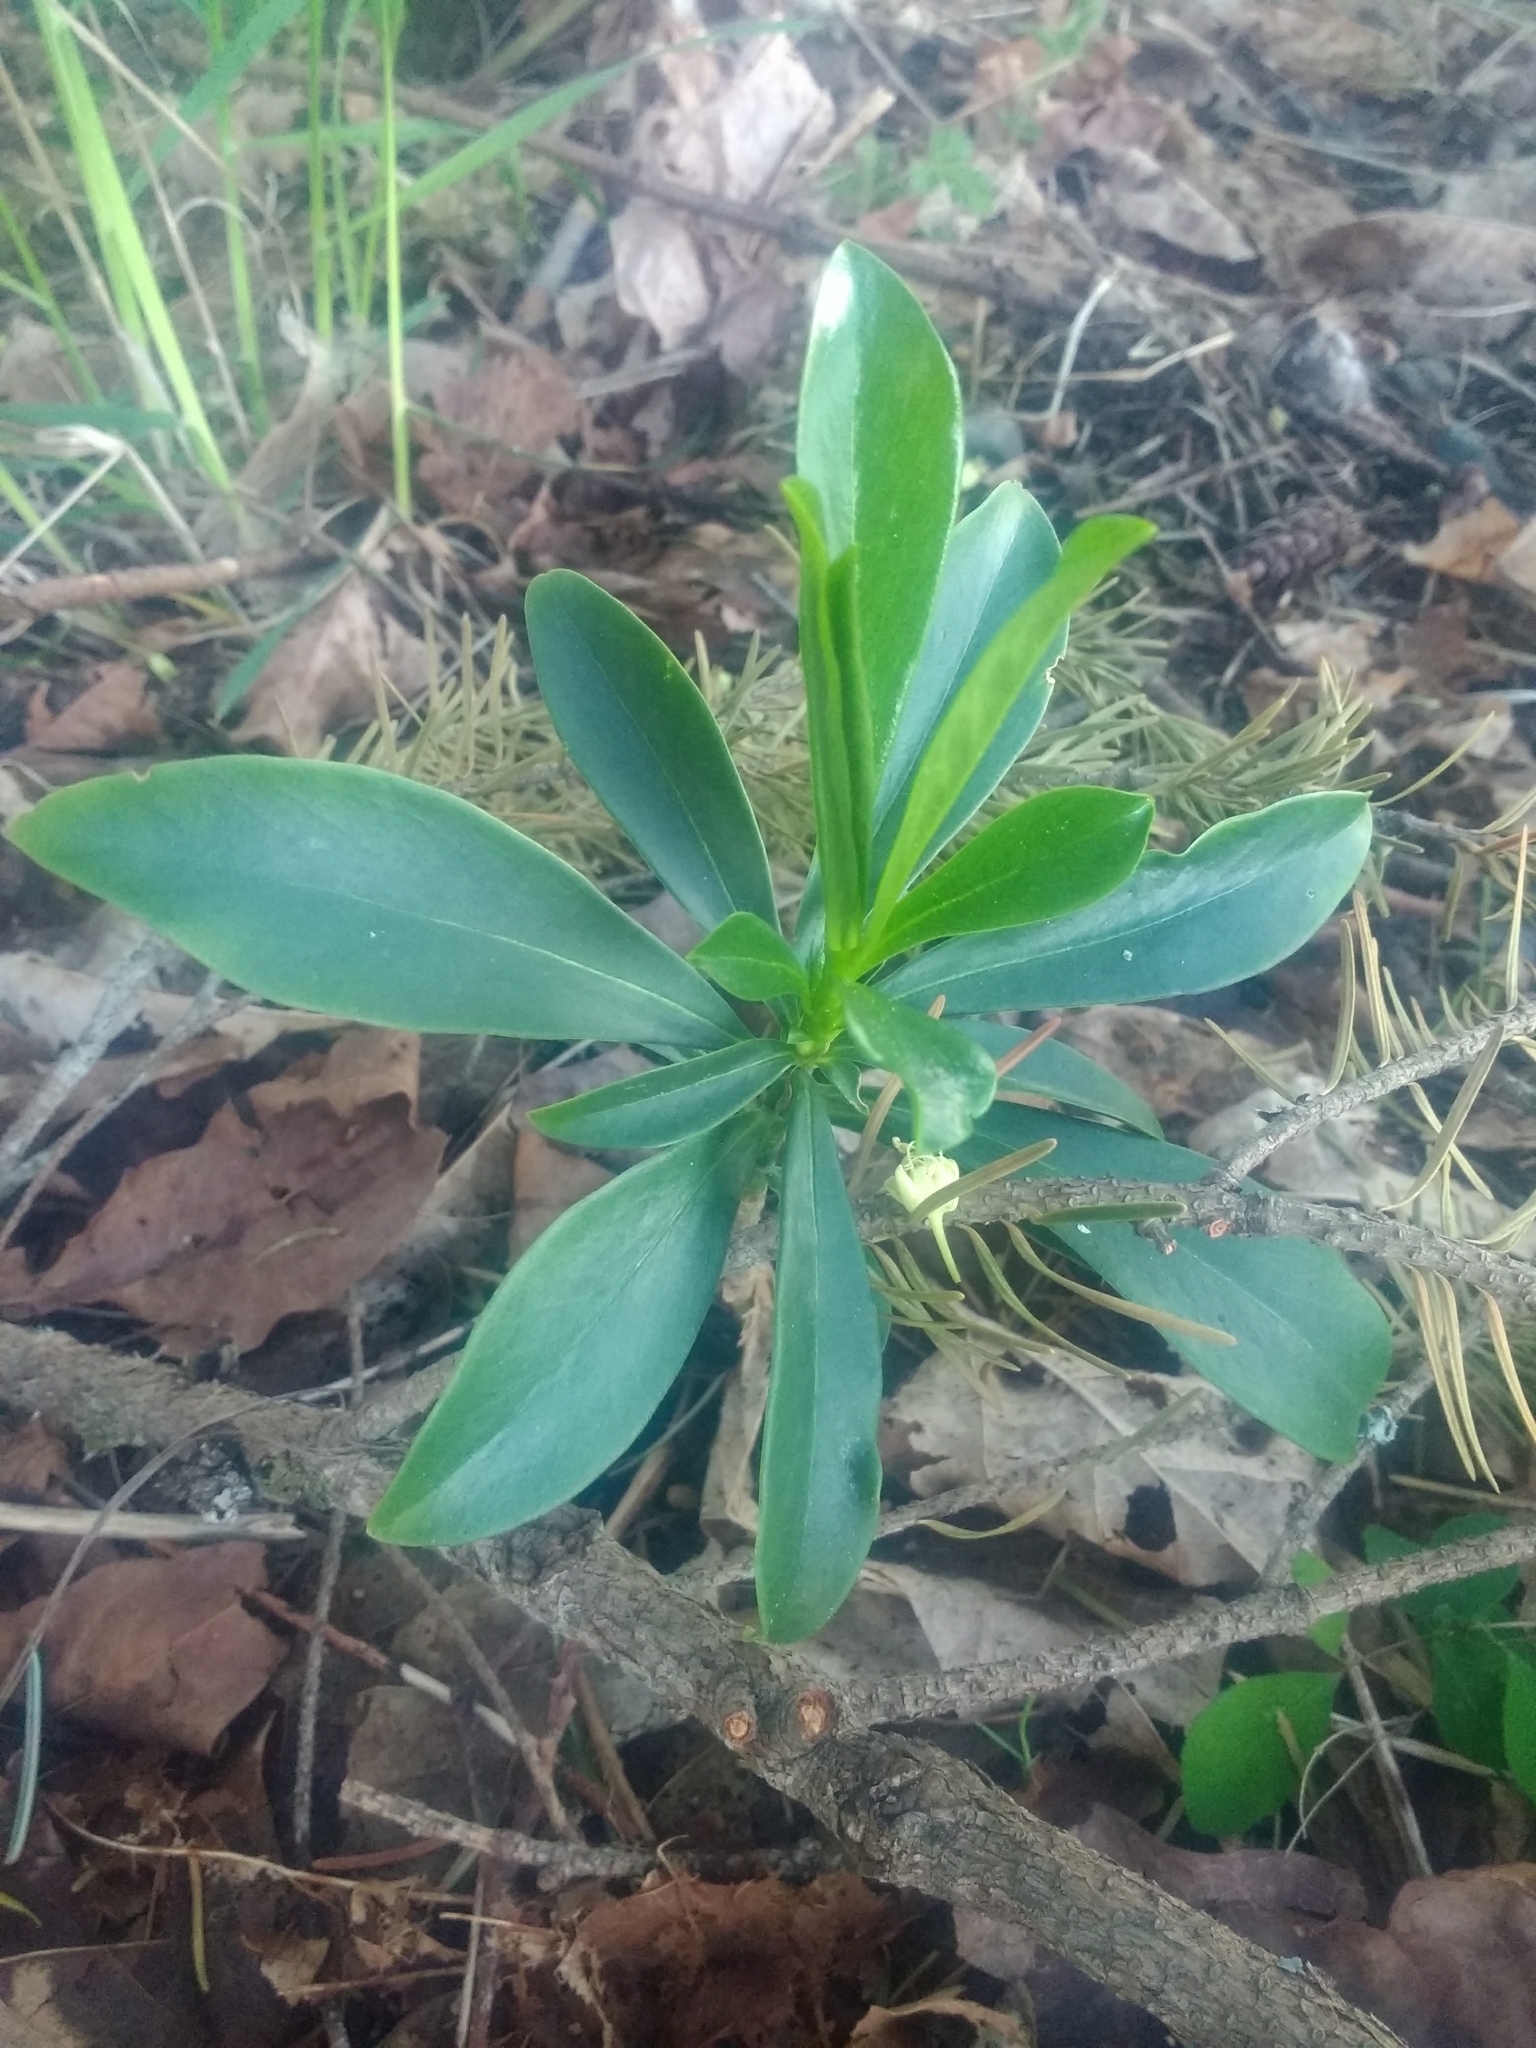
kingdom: Plantae
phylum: Tracheophyta
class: Magnoliopsida
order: Malvales
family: Thymelaeaceae
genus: Daphne
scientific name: Daphne laureola
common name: Spurge-laurel
